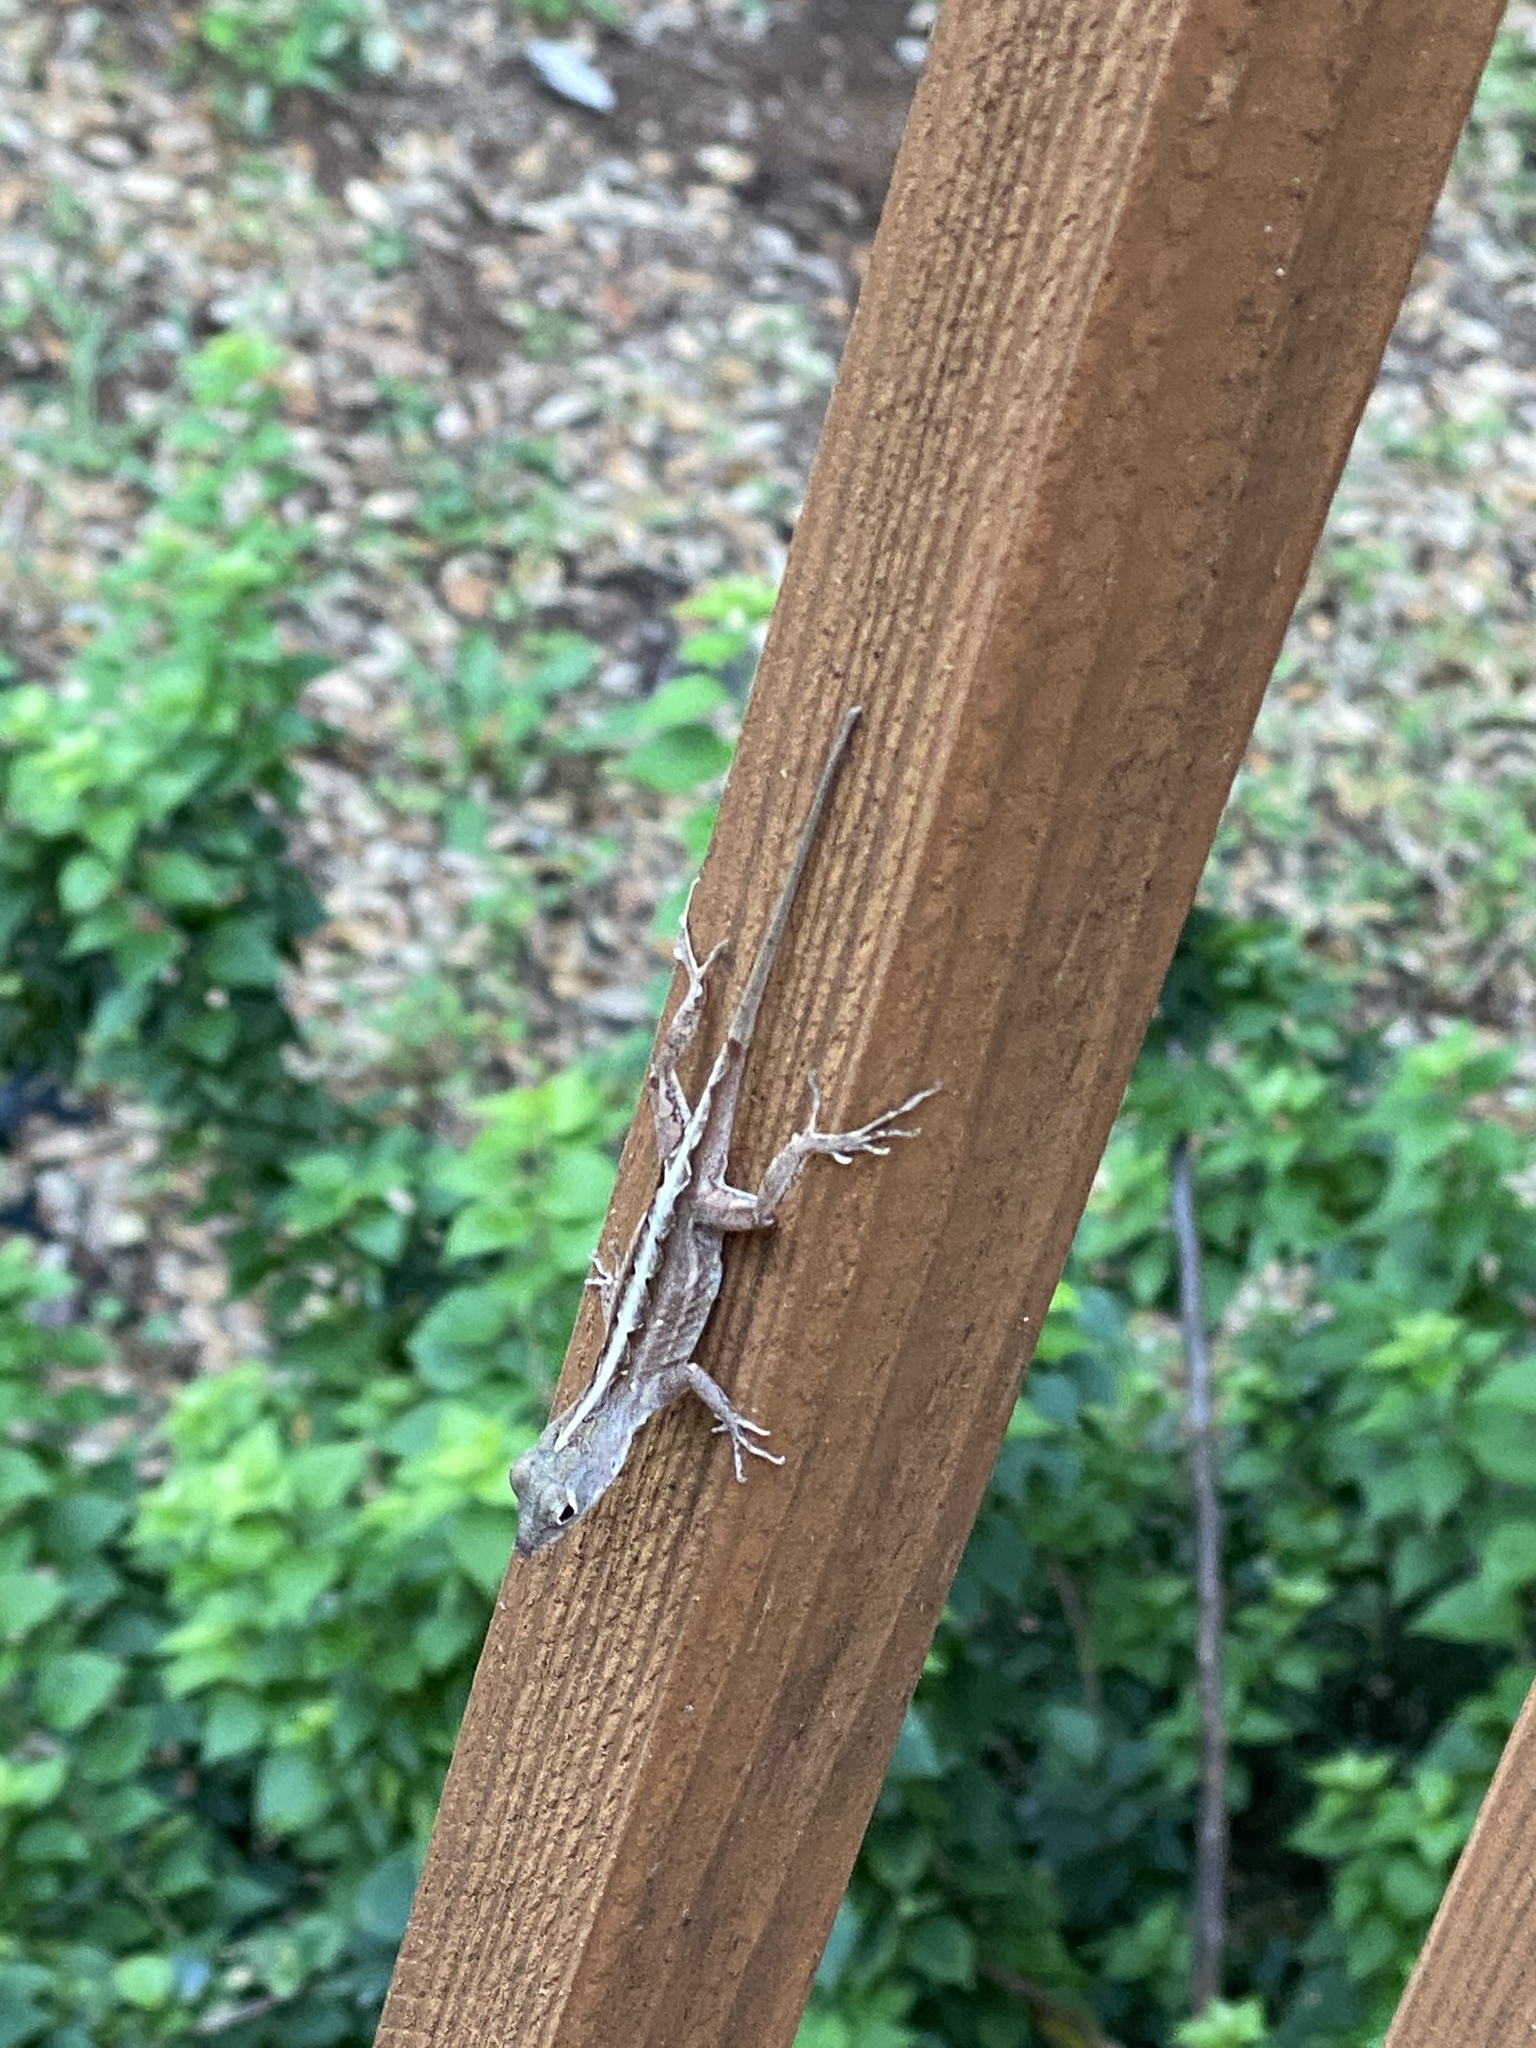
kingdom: Animalia
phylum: Chordata
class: Squamata
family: Dactyloidae
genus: Anolis
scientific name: Anolis sagrei
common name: Brown anole
